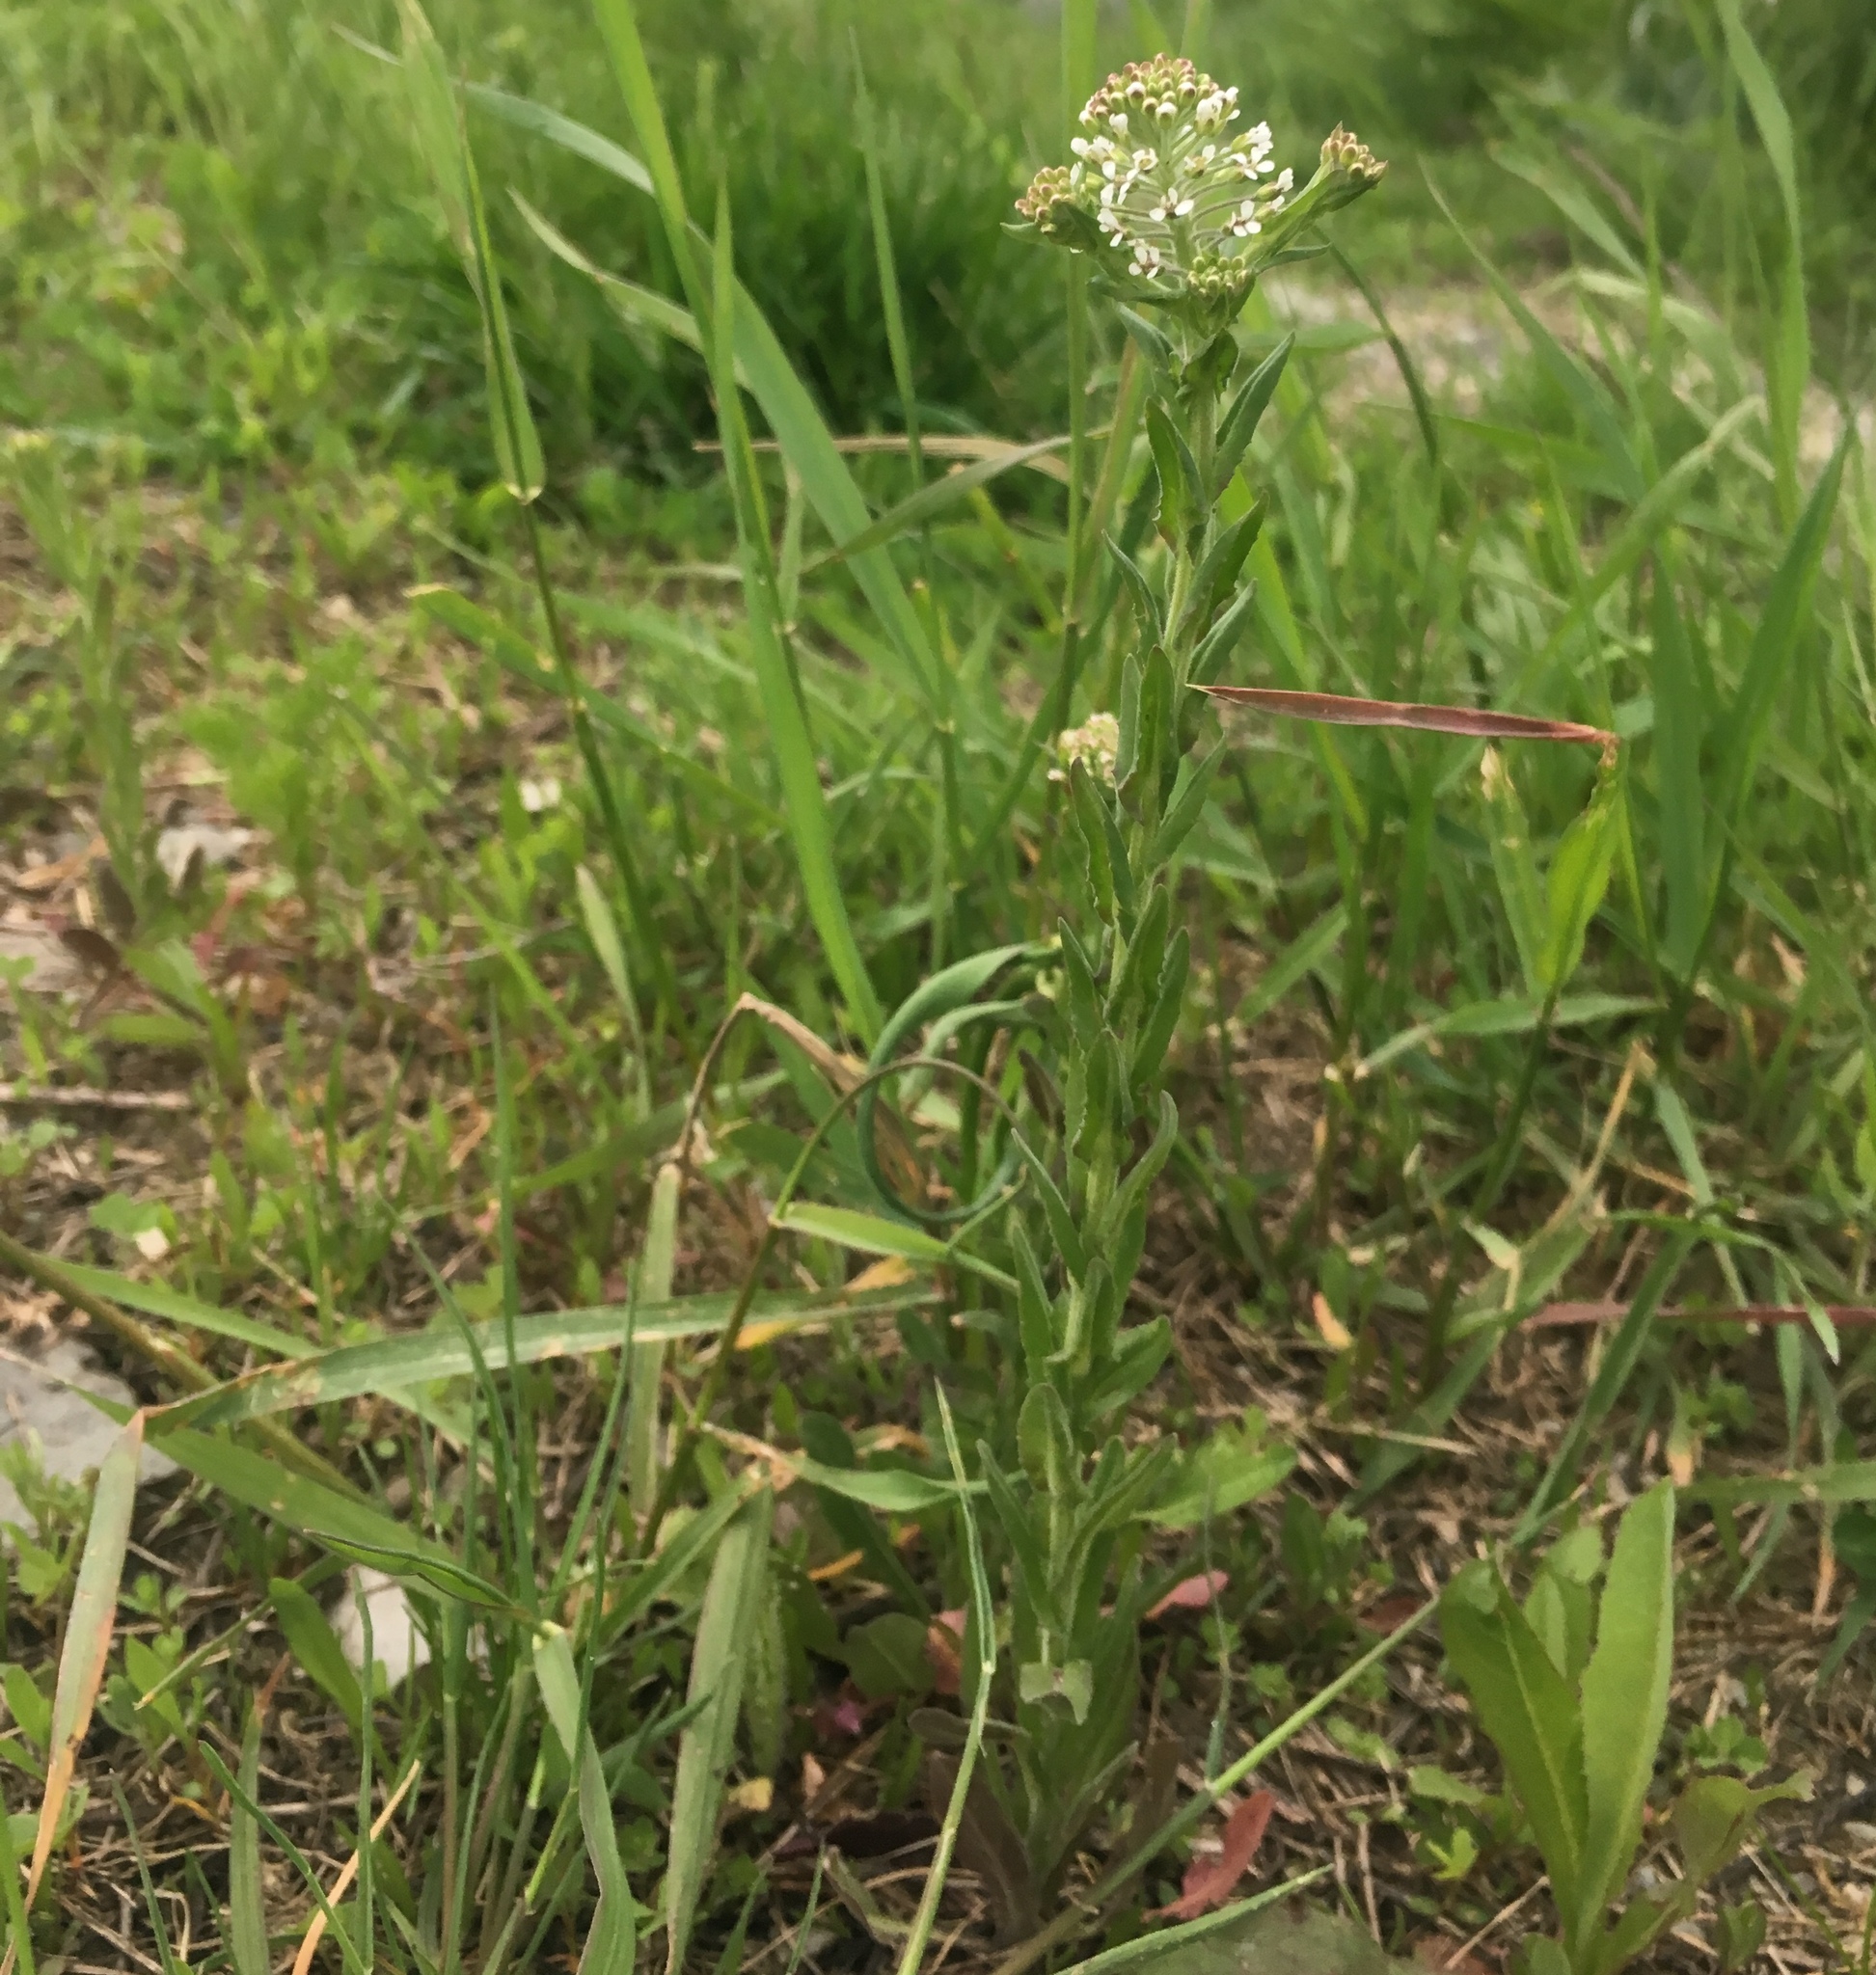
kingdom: Plantae
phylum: Tracheophyta
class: Magnoliopsida
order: Brassicales
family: Brassicaceae
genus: Lepidium
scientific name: Lepidium campestre
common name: Field pepperwort
